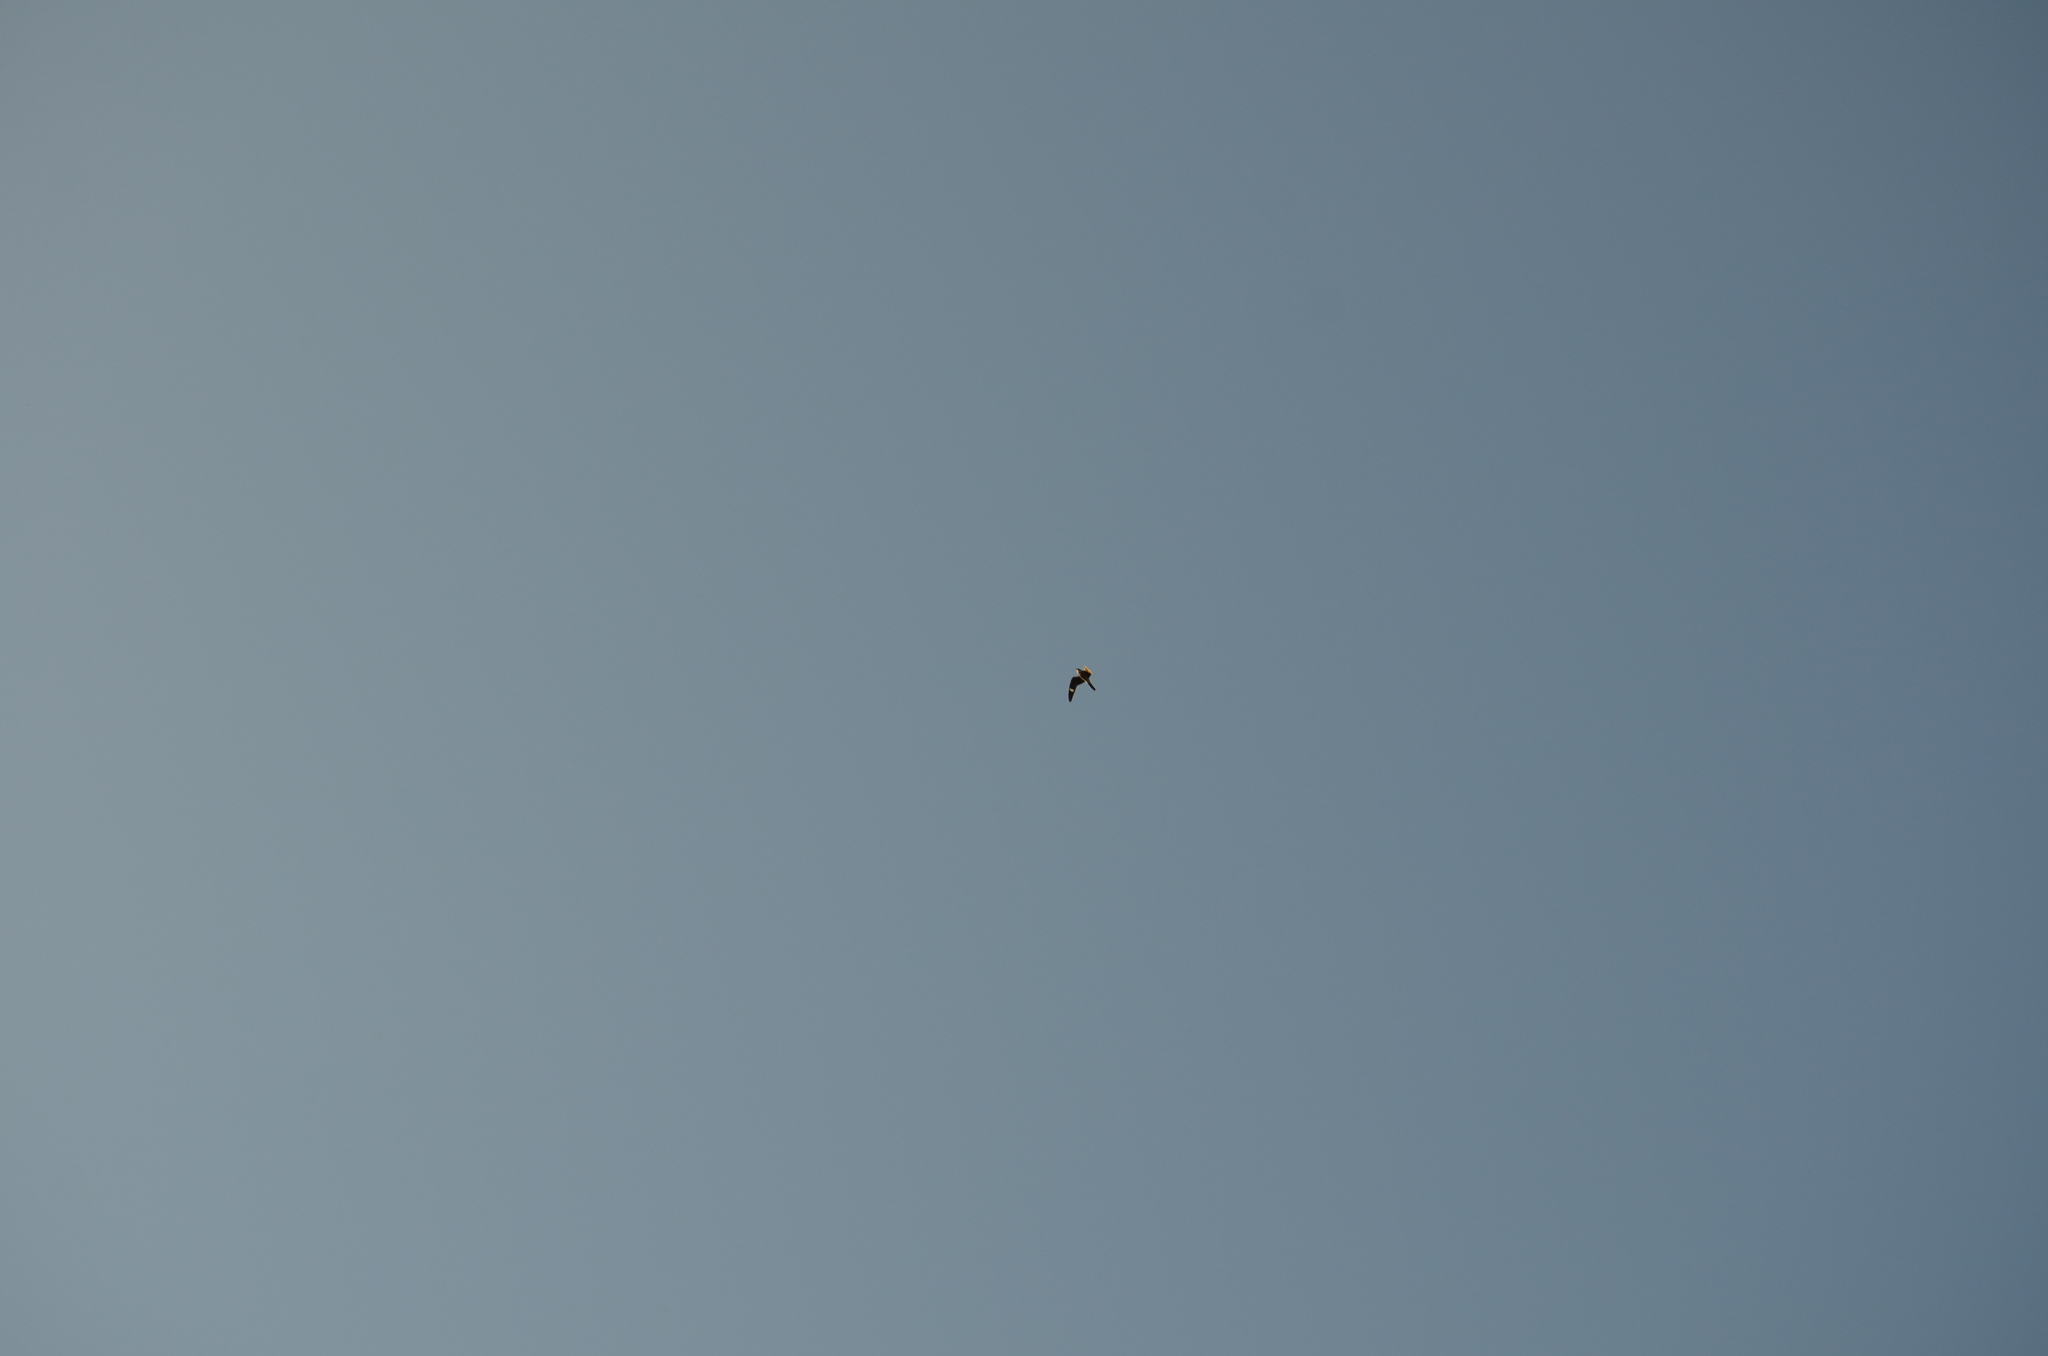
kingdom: Animalia
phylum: Chordata
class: Aves
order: Caprimulgiformes
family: Caprimulgidae
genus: Chordeiles
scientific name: Chordeiles minor
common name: Common nighthawk
